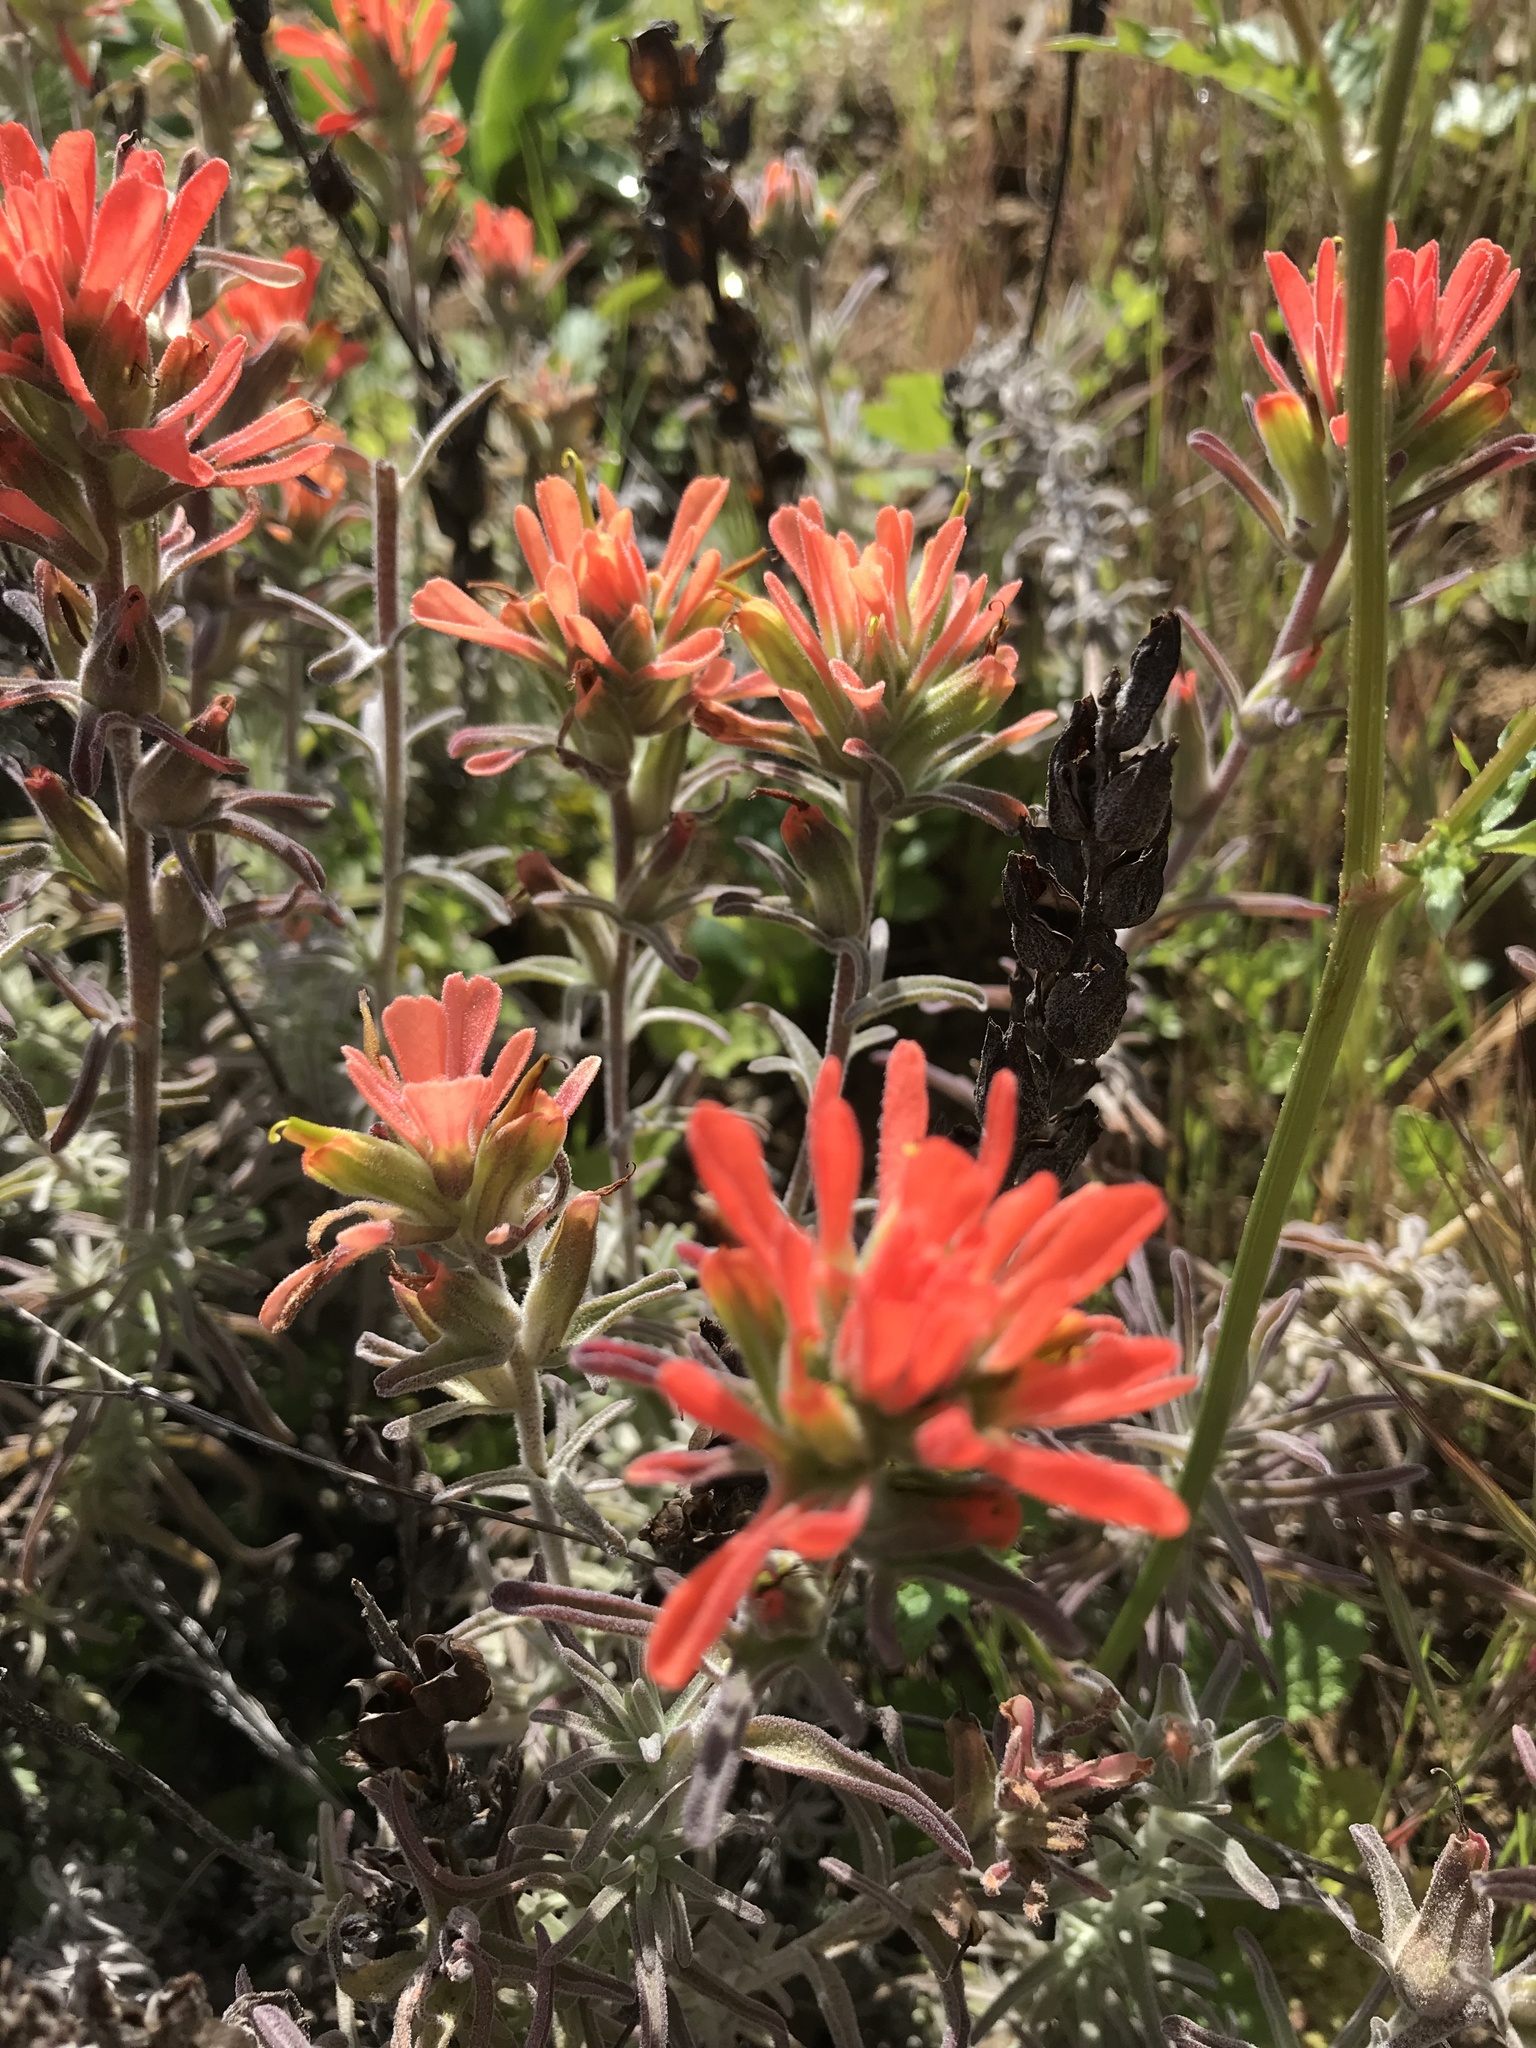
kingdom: Plantae
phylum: Tracheophyta
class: Magnoliopsida
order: Lamiales
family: Orobanchaceae
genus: Castilleja
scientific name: Castilleja foliolosa
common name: Woolly indian paintbrush
